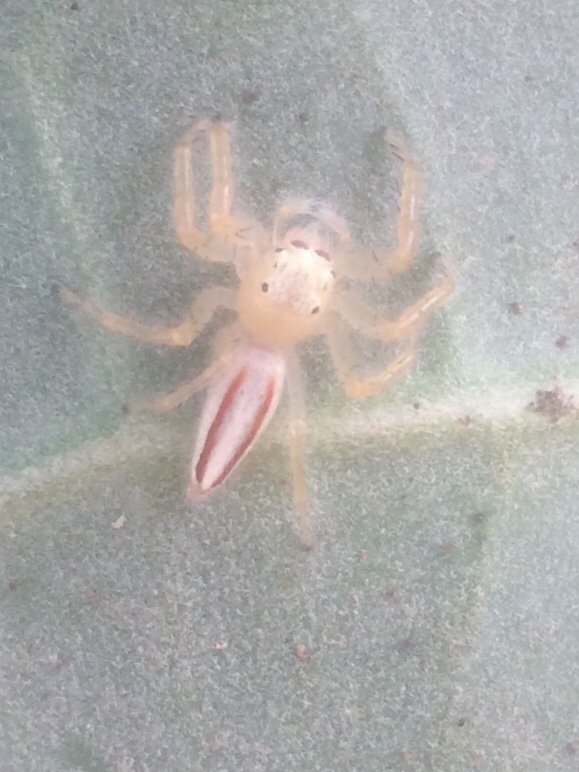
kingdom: Animalia
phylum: Arthropoda
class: Arachnida
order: Araneae
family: Salticidae
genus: Telamonia
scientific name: Telamonia dimidiata
